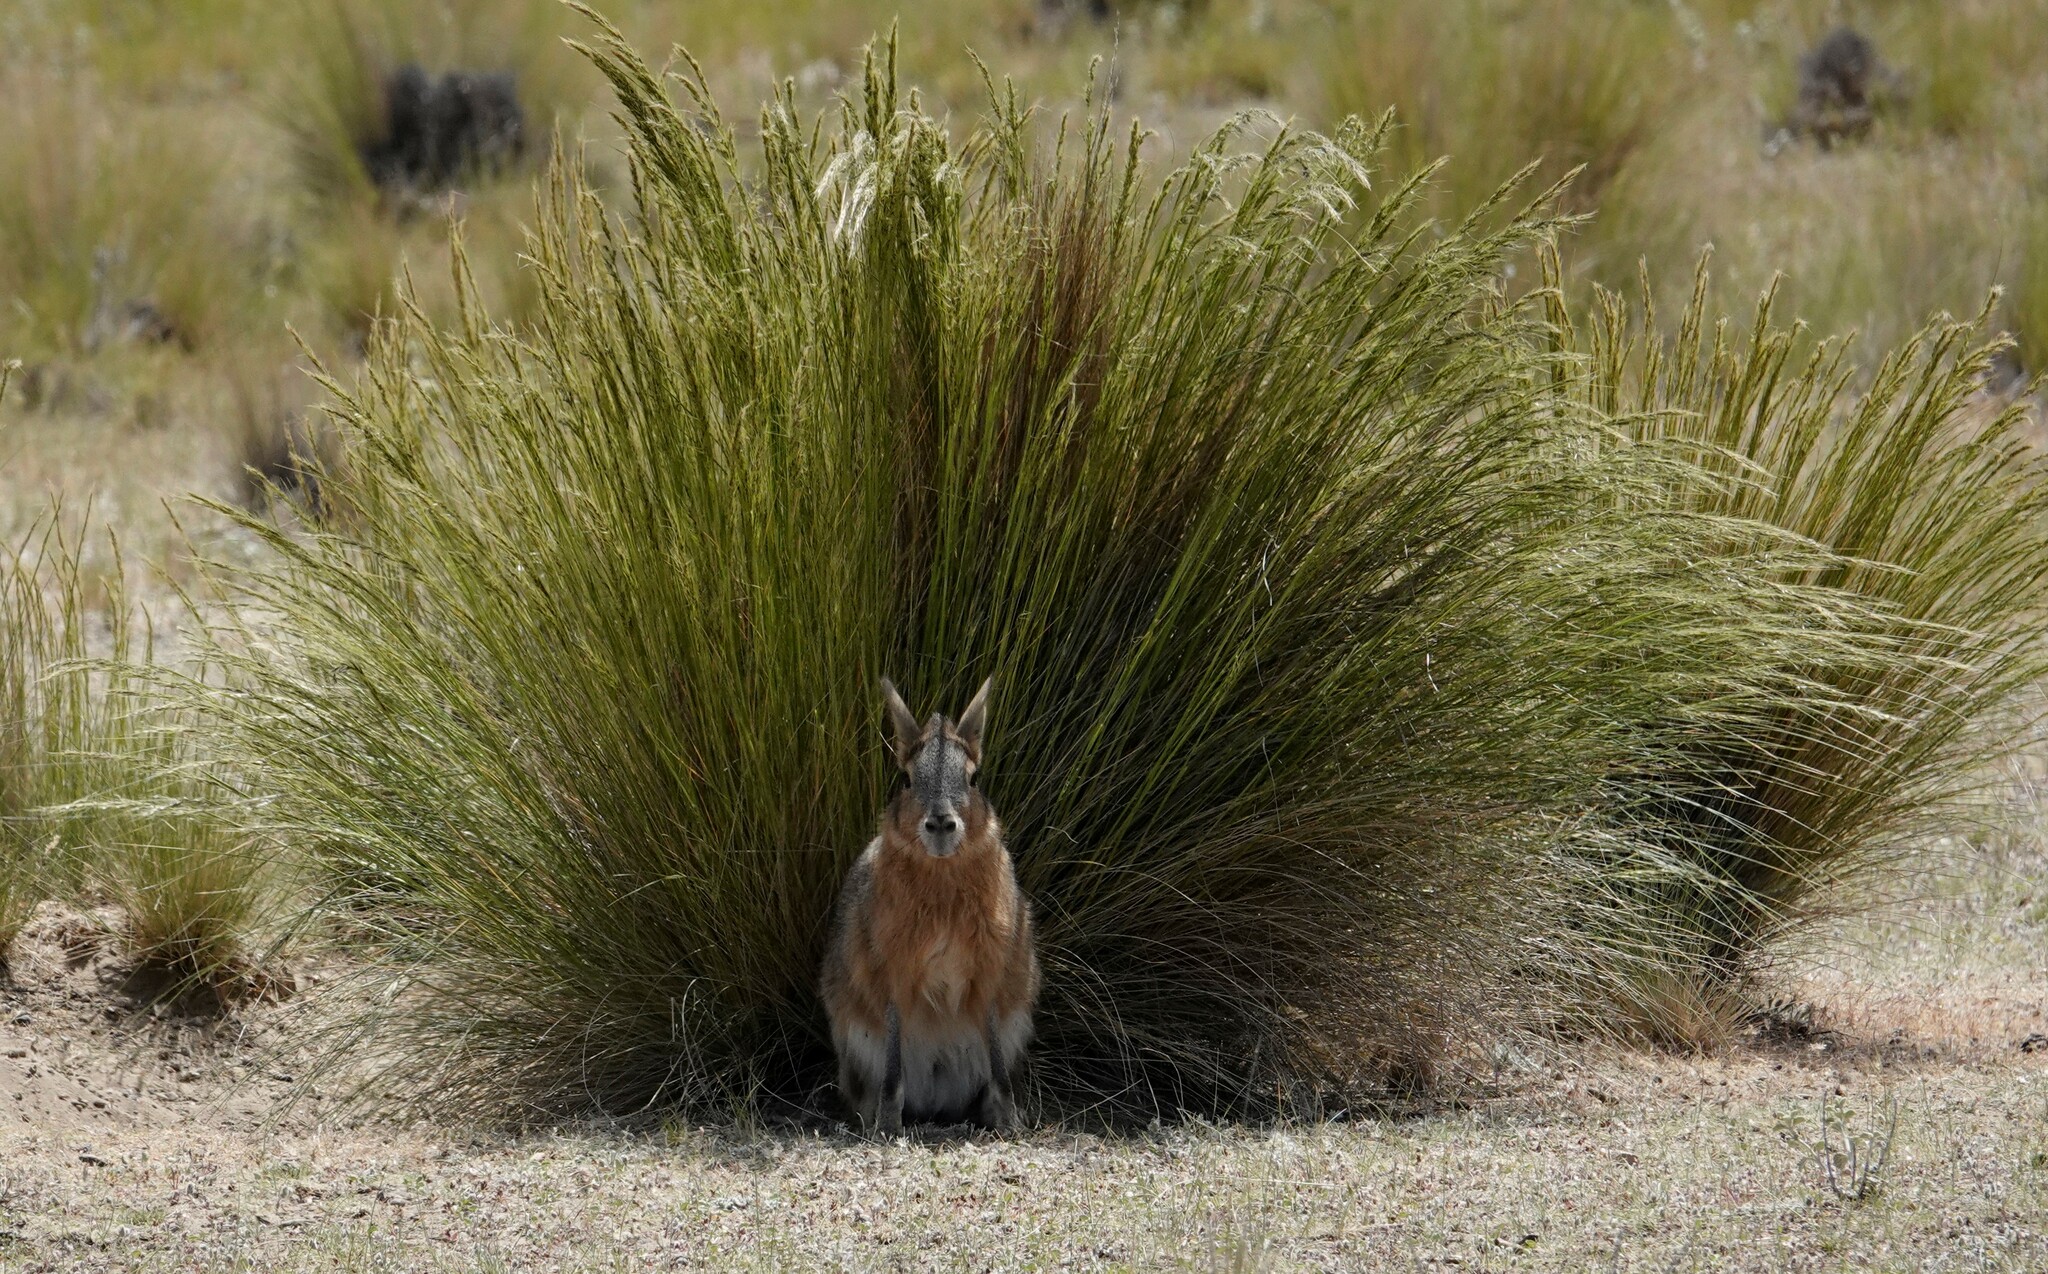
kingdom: Animalia
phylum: Chordata
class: Mammalia
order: Rodentia
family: Caviidae
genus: Dolichotis
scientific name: Dolichotis patagonum
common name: Patagonian mara
